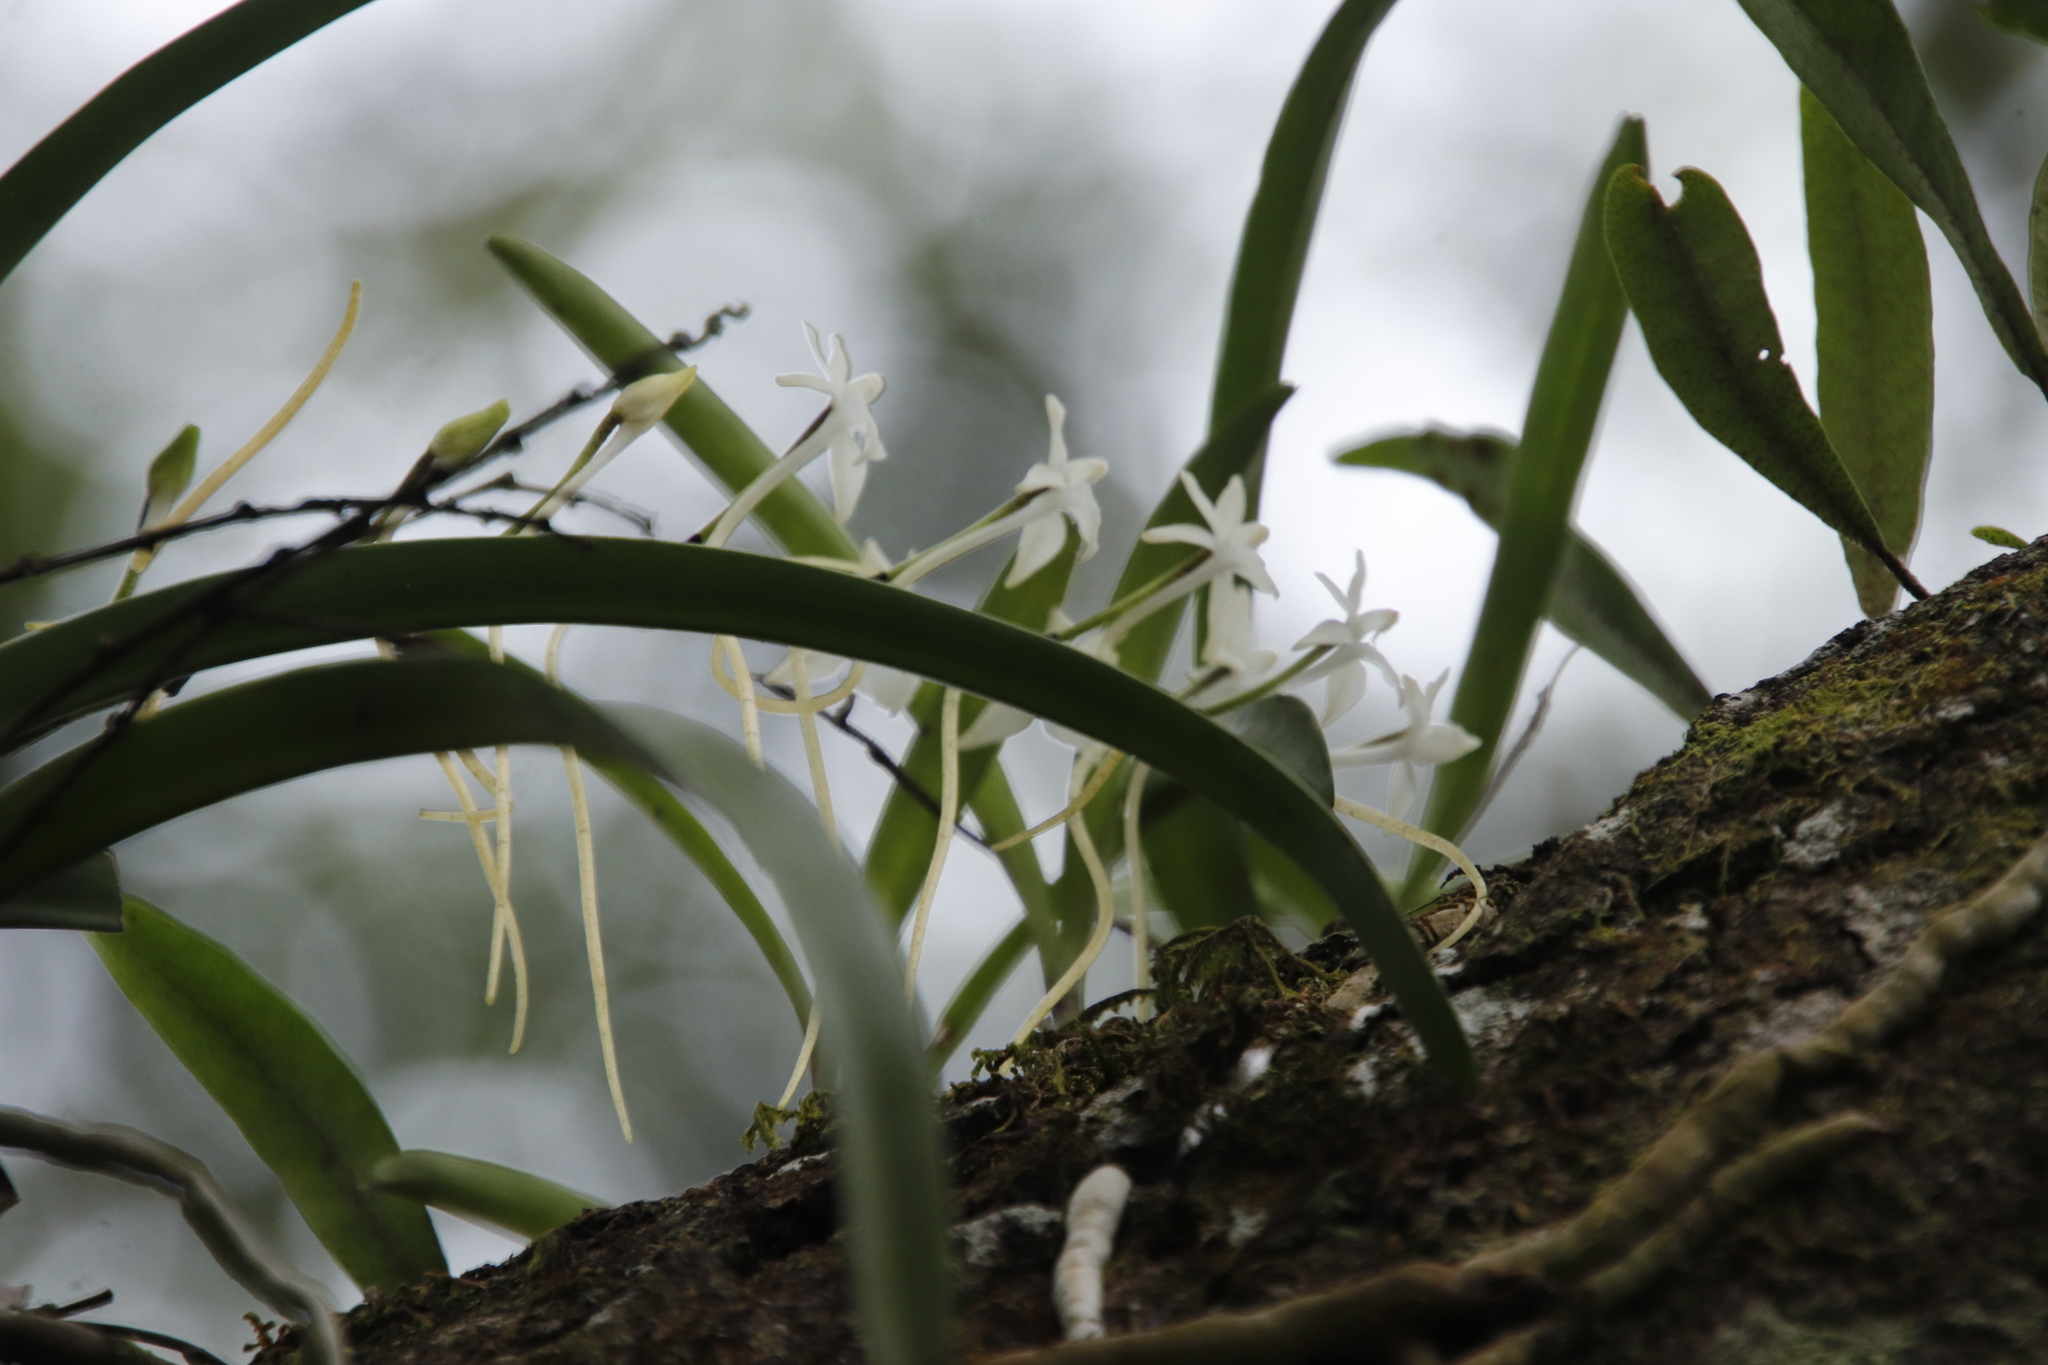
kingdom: Plantae
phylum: Tracheophyta
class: Liliopsida
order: Asparagales
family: Orchidaceae
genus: Rangaeris
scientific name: Rangaeris muscicola
